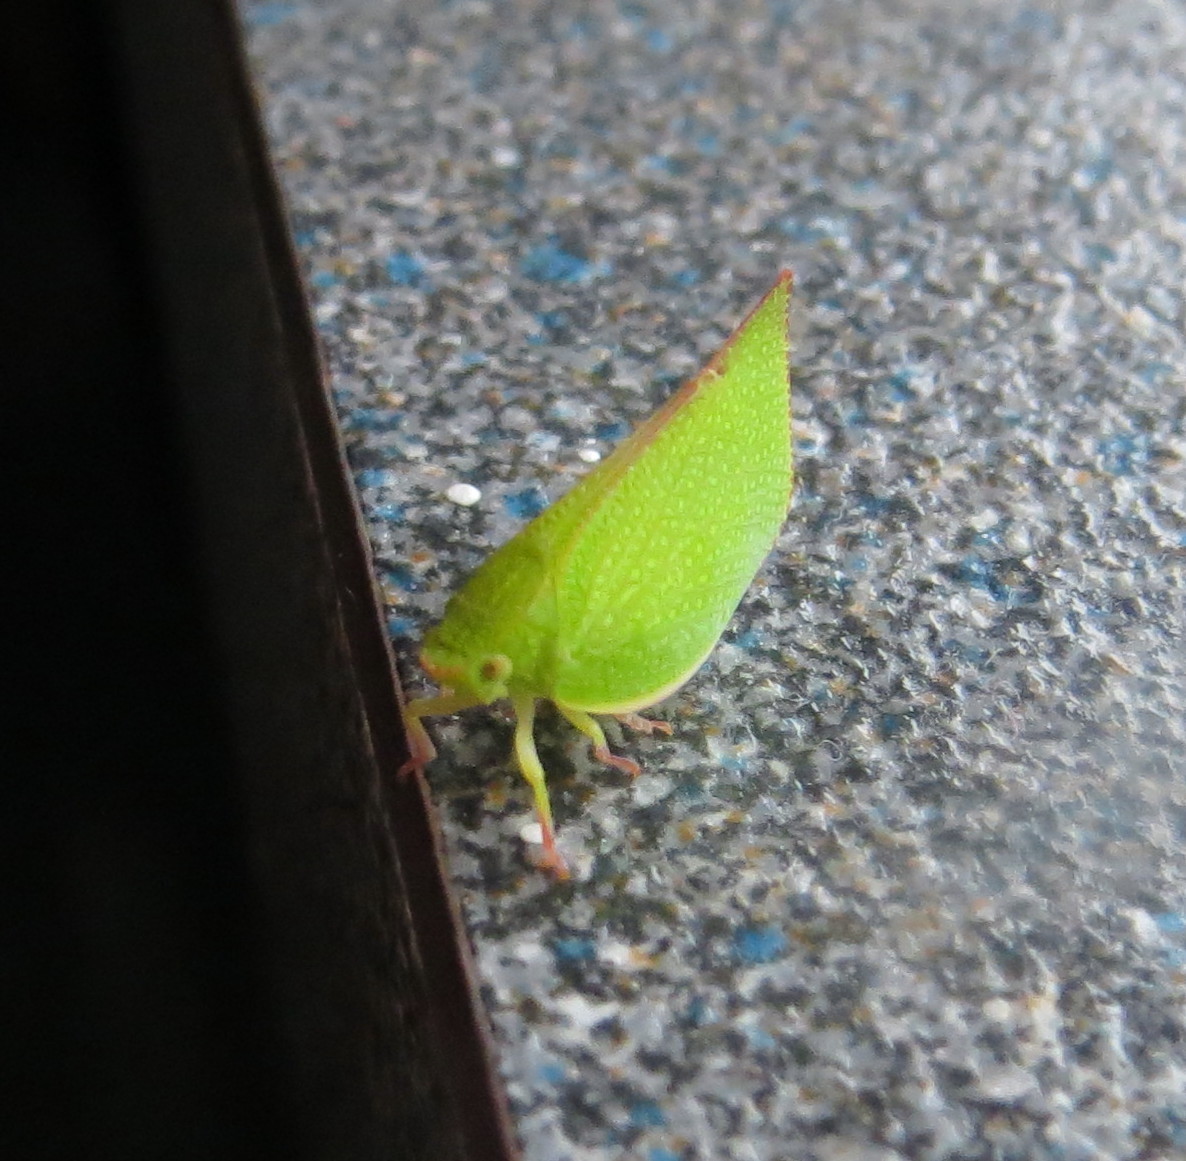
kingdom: Animalia
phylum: Arthropoda
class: Insecta
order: Hemiptera
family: Flatidae
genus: Siphanta
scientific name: Siphanta acuta
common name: Torpedo bug
